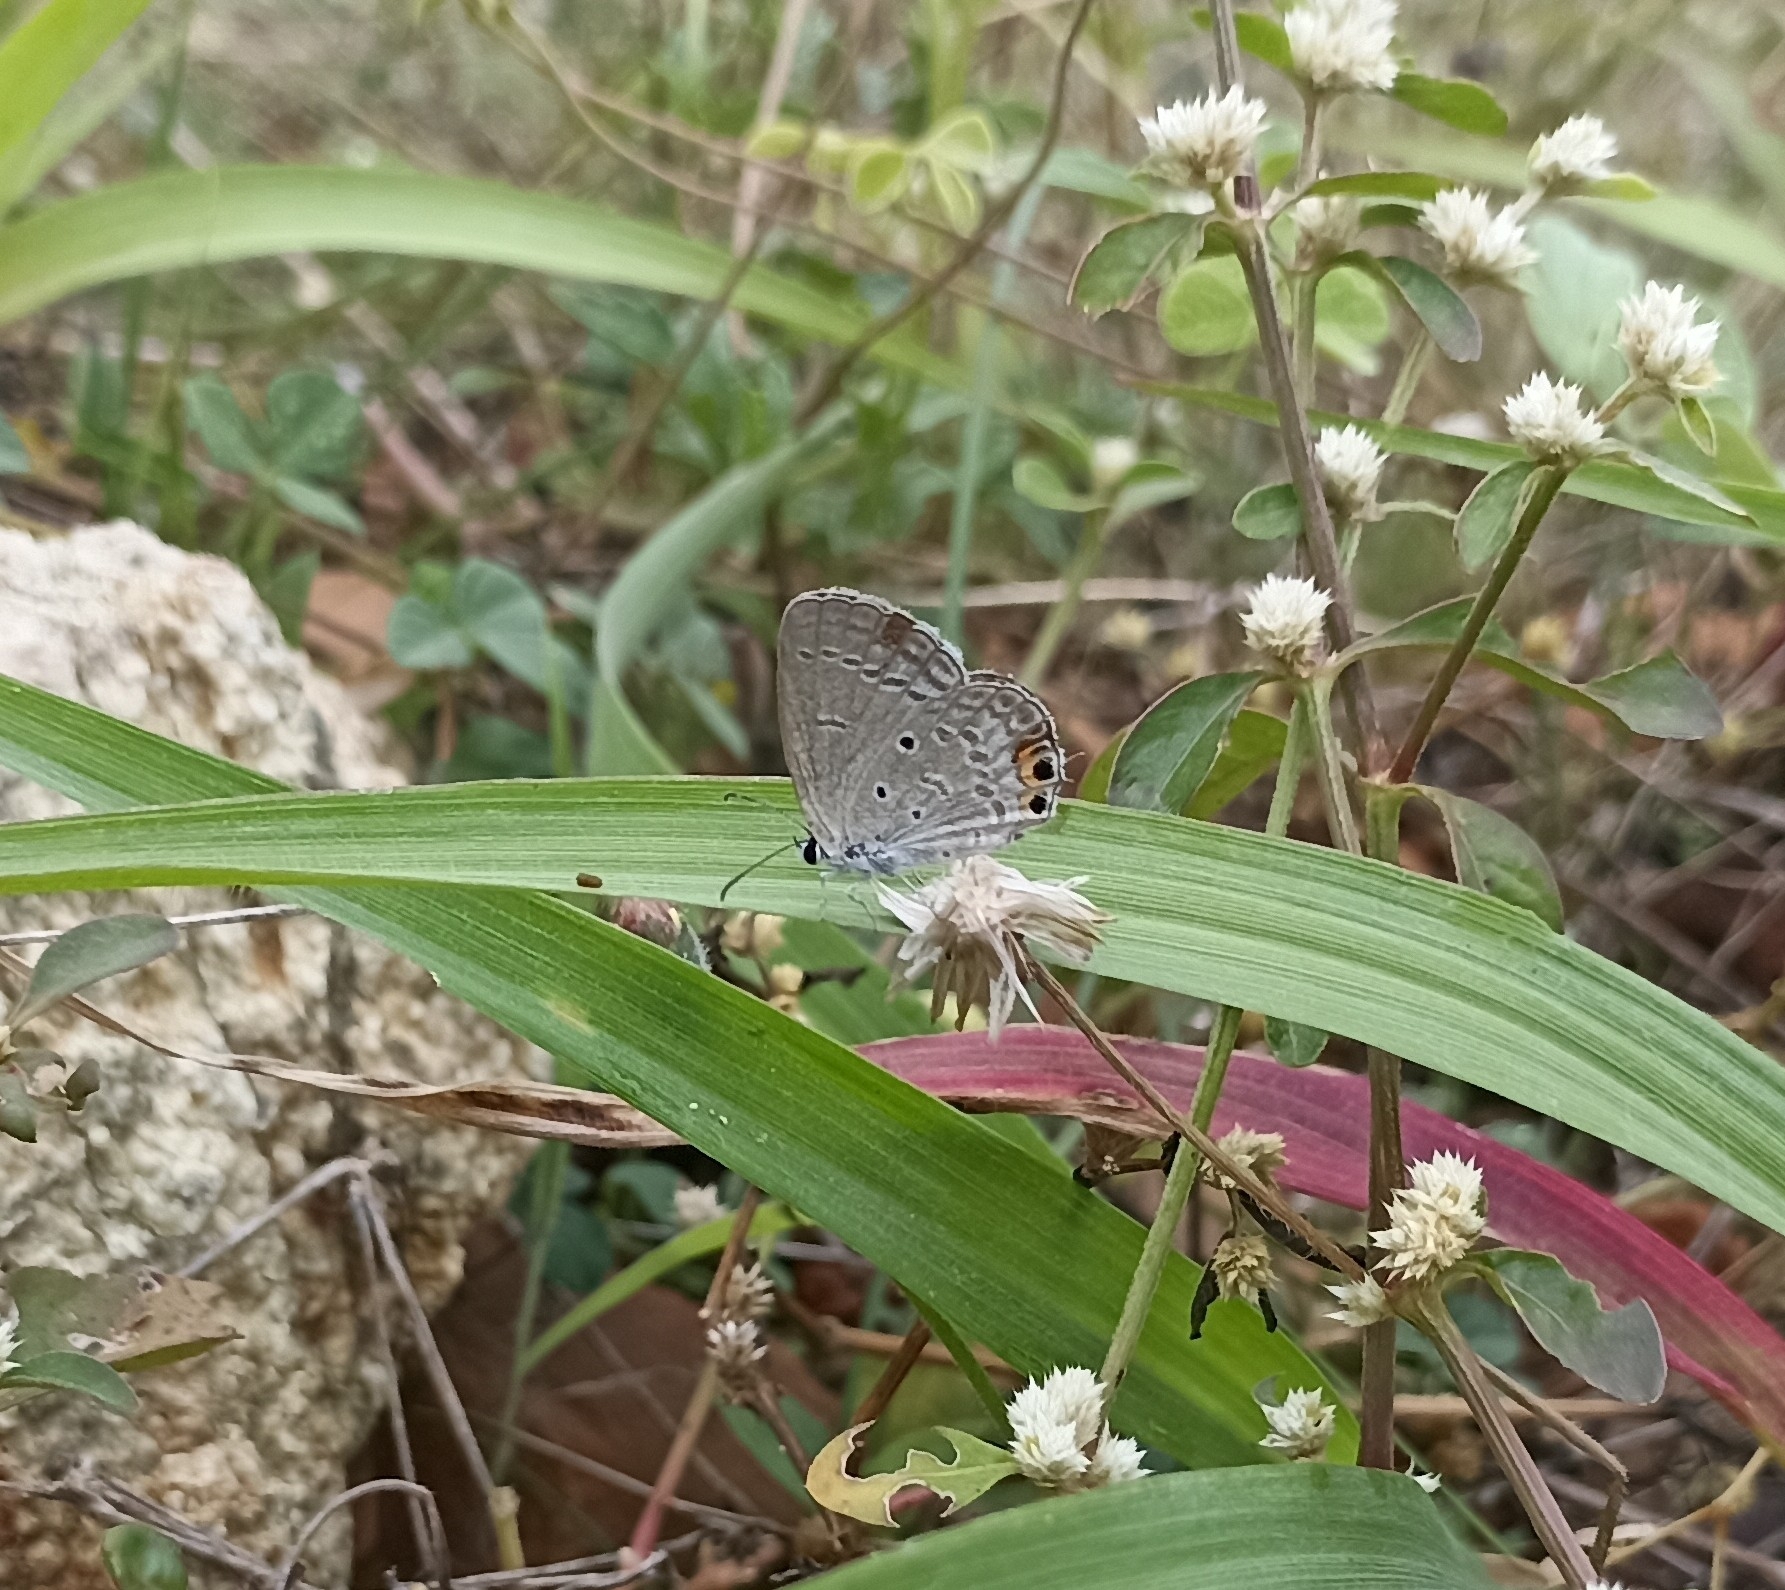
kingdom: Animalia
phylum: Arthropoda
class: Insecta
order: Lepidoptera
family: Lycaenidae
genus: Euchrysops
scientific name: Euchrysops cnejus
